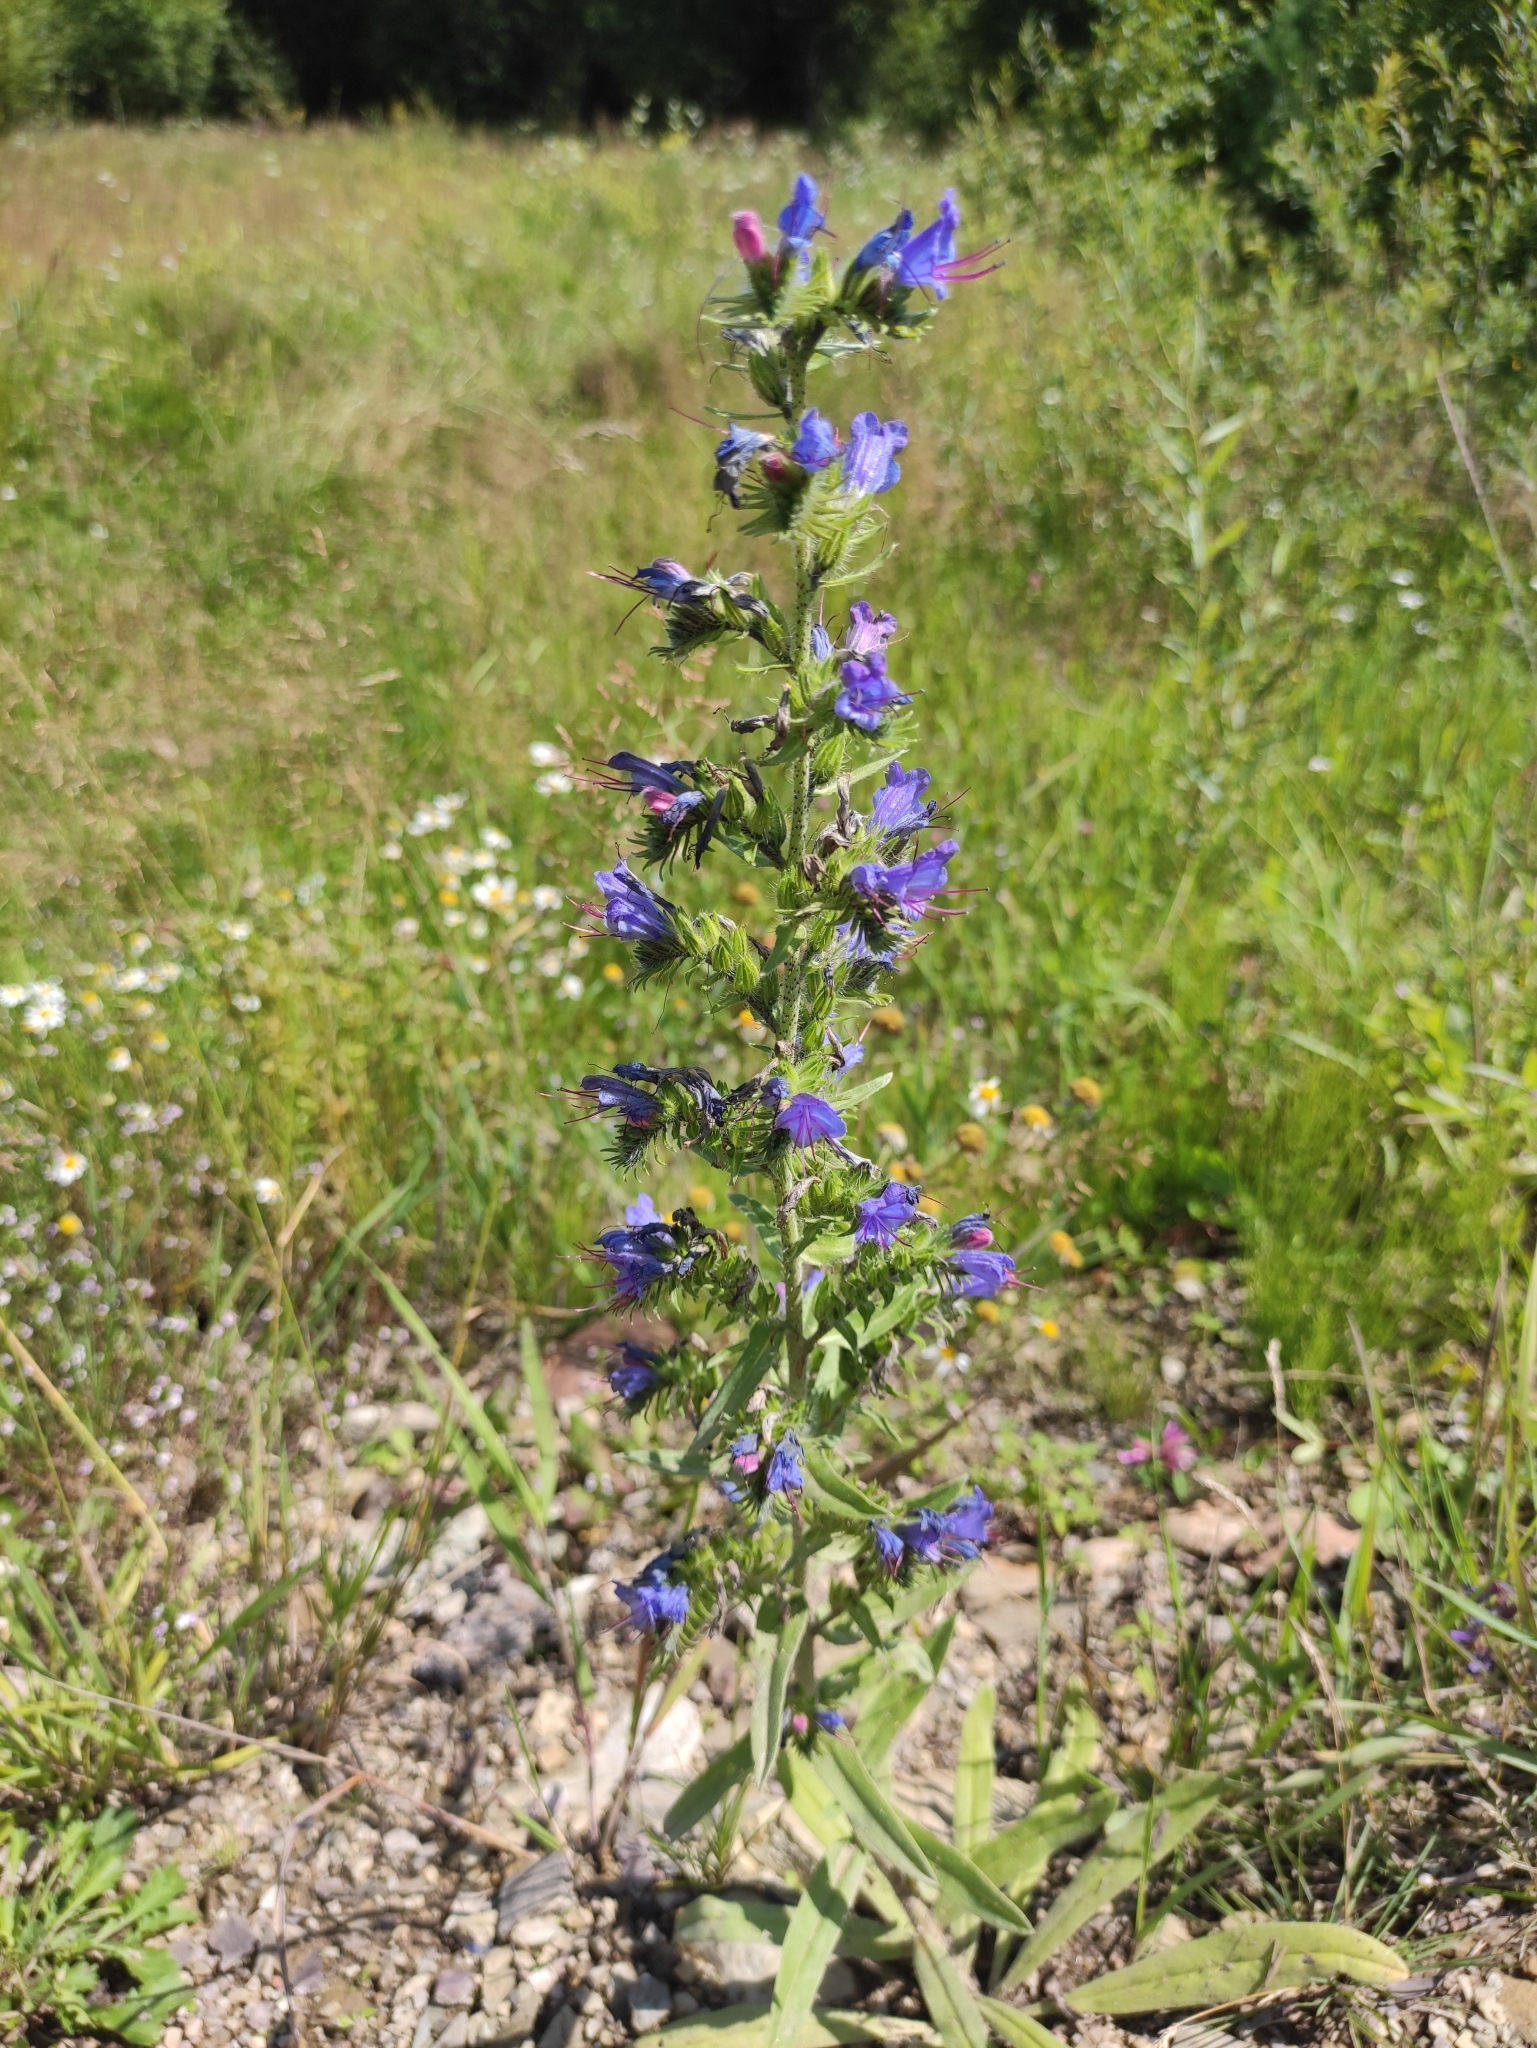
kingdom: Plantae
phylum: Tracheophyta
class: Magnoliopsida
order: Boraginales
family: Boraginaceae
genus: Echium
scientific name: Echium vulgare
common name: Common viper's bugloss
